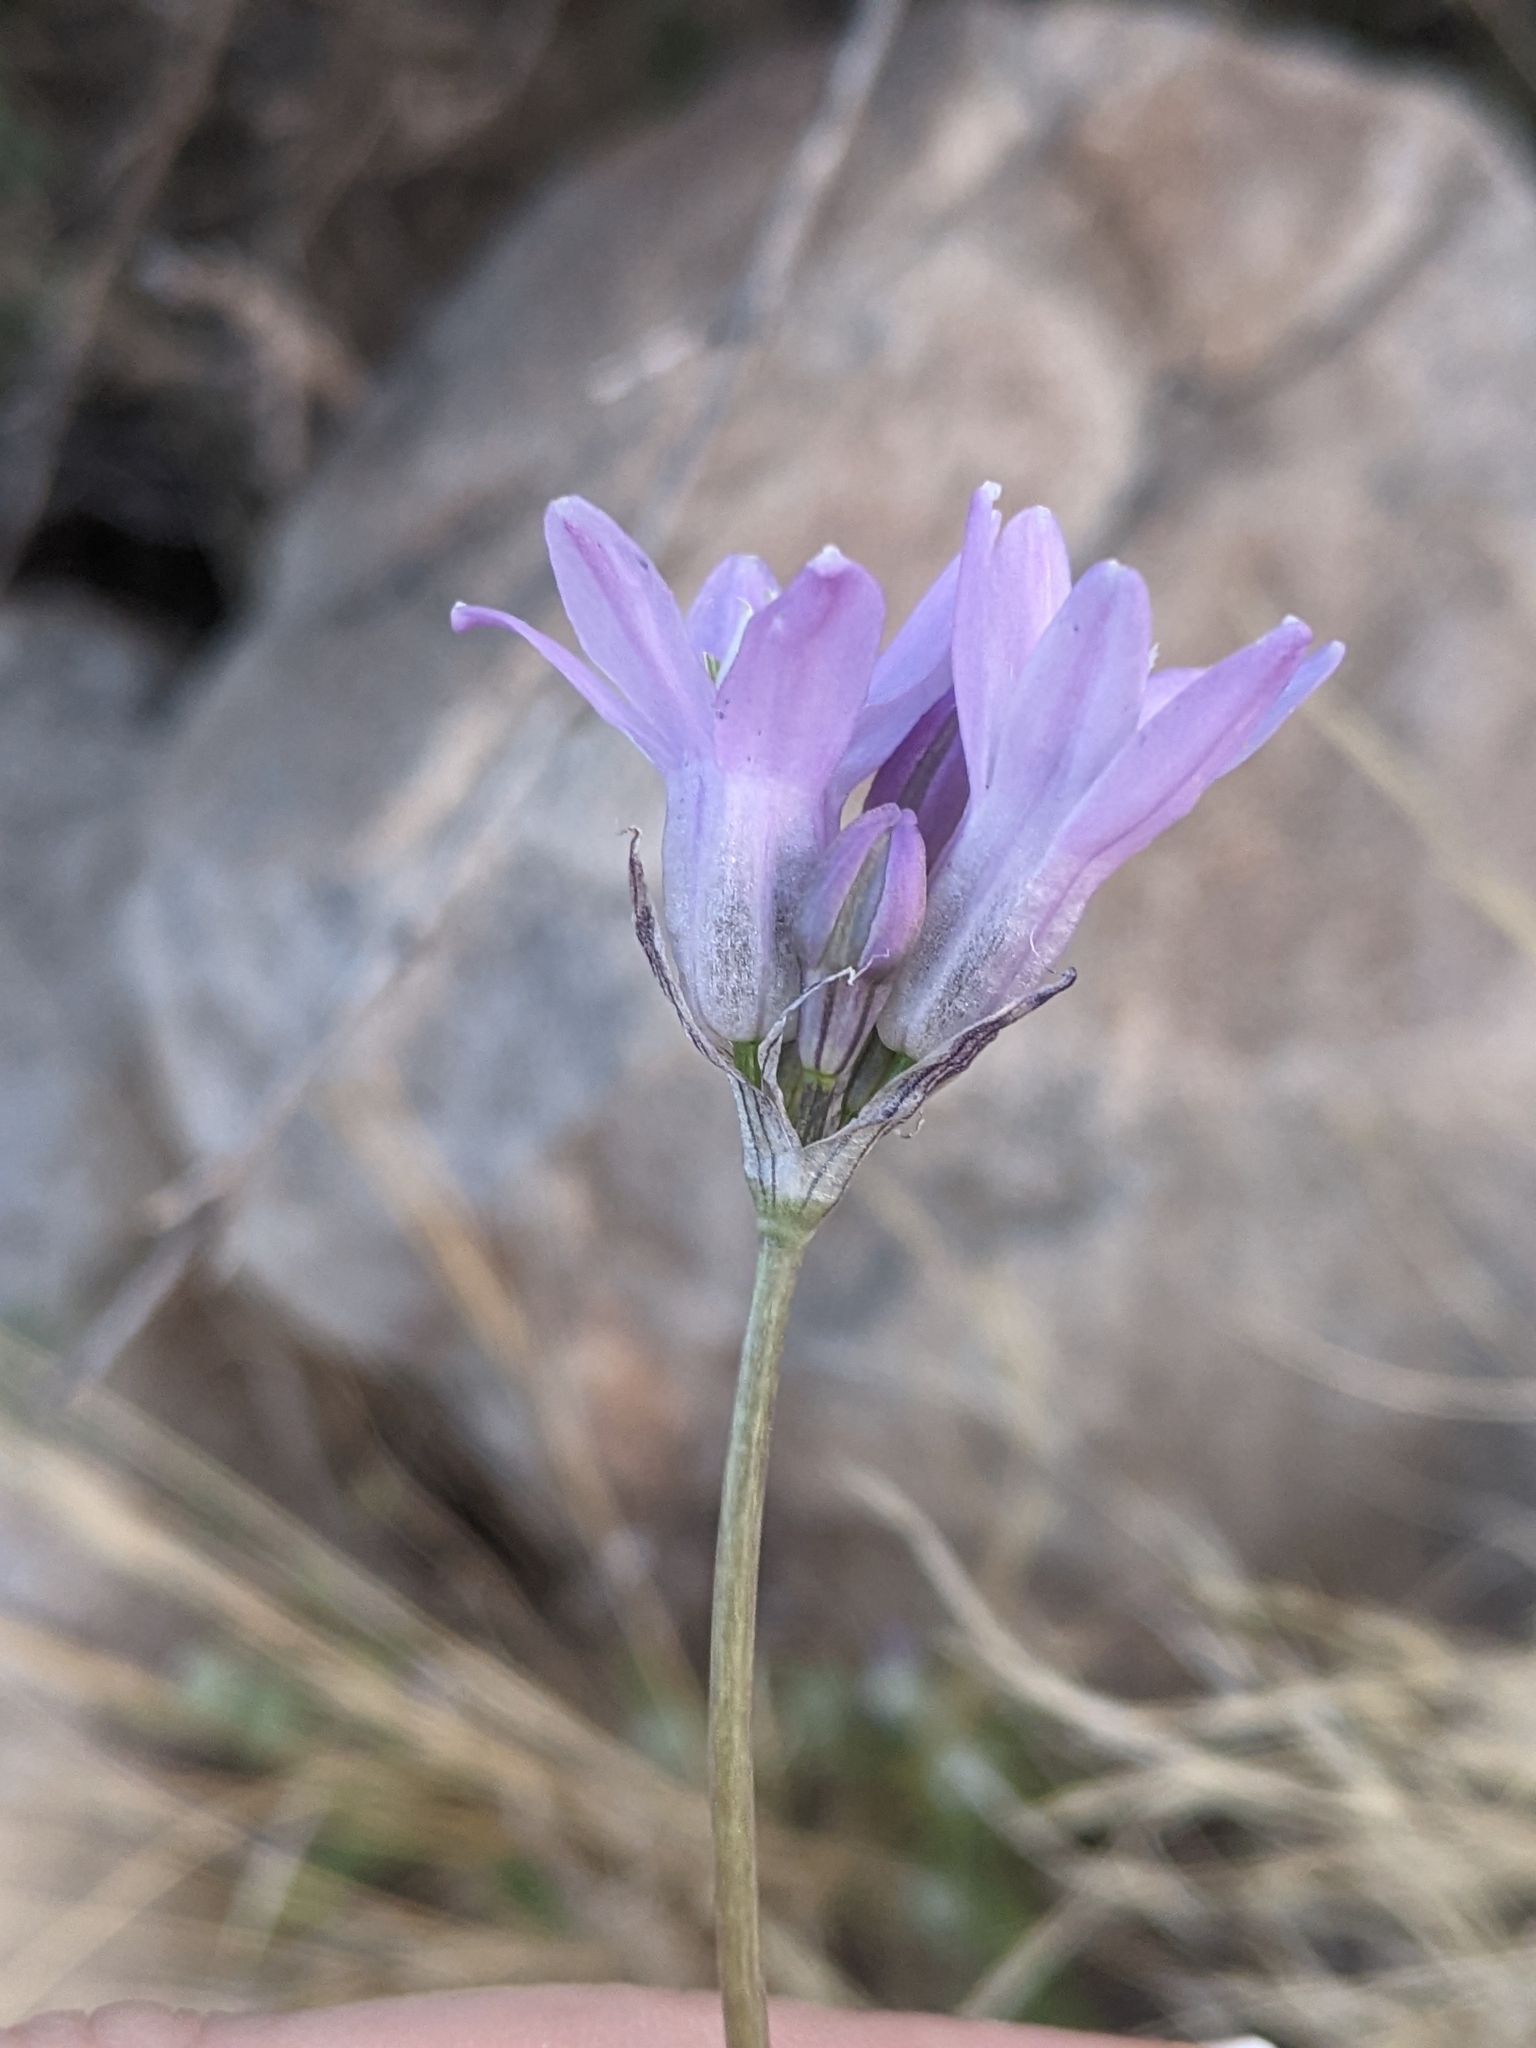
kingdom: Plantae
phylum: Tracheophyta
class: Liliopsida
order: Asparagales
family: Asparagaceae
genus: Dipterostemon
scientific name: Dipterostemon capitatus
